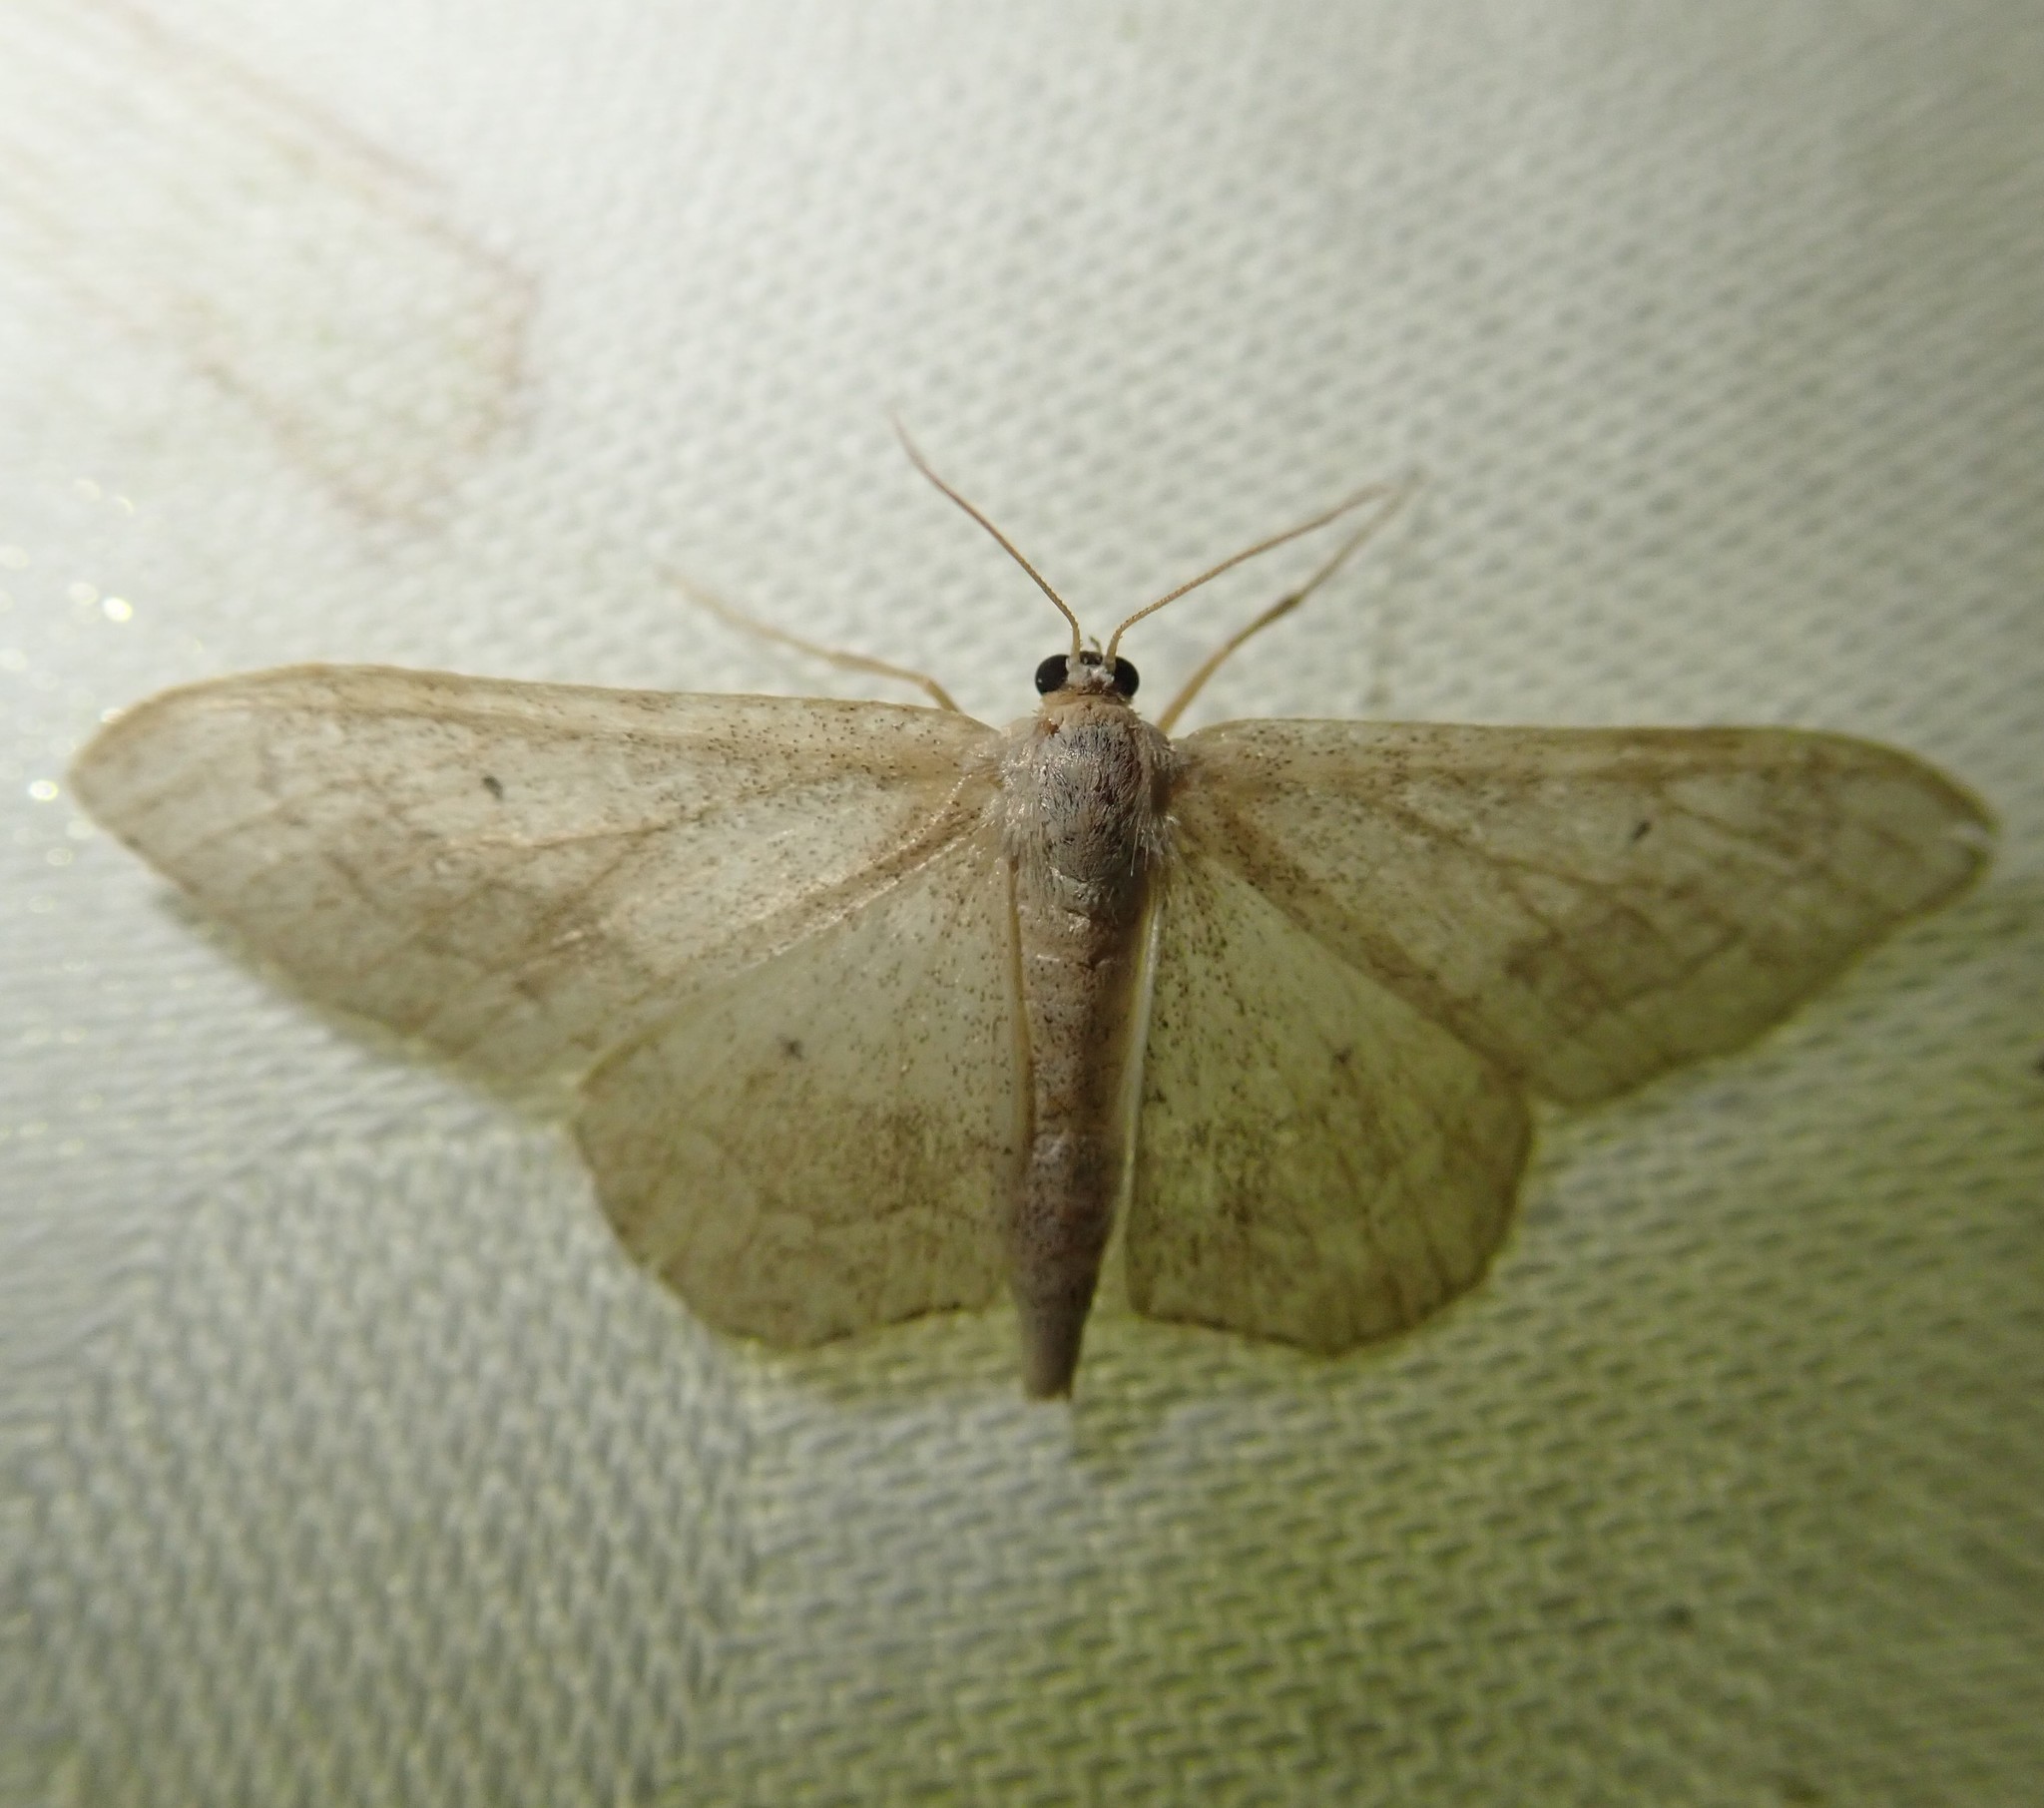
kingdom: Animalia
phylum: Arthropoda
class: Insecta
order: Lepidoptera
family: Geometridae
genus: Idaea
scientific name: Idaea aversata
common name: Riband wave
